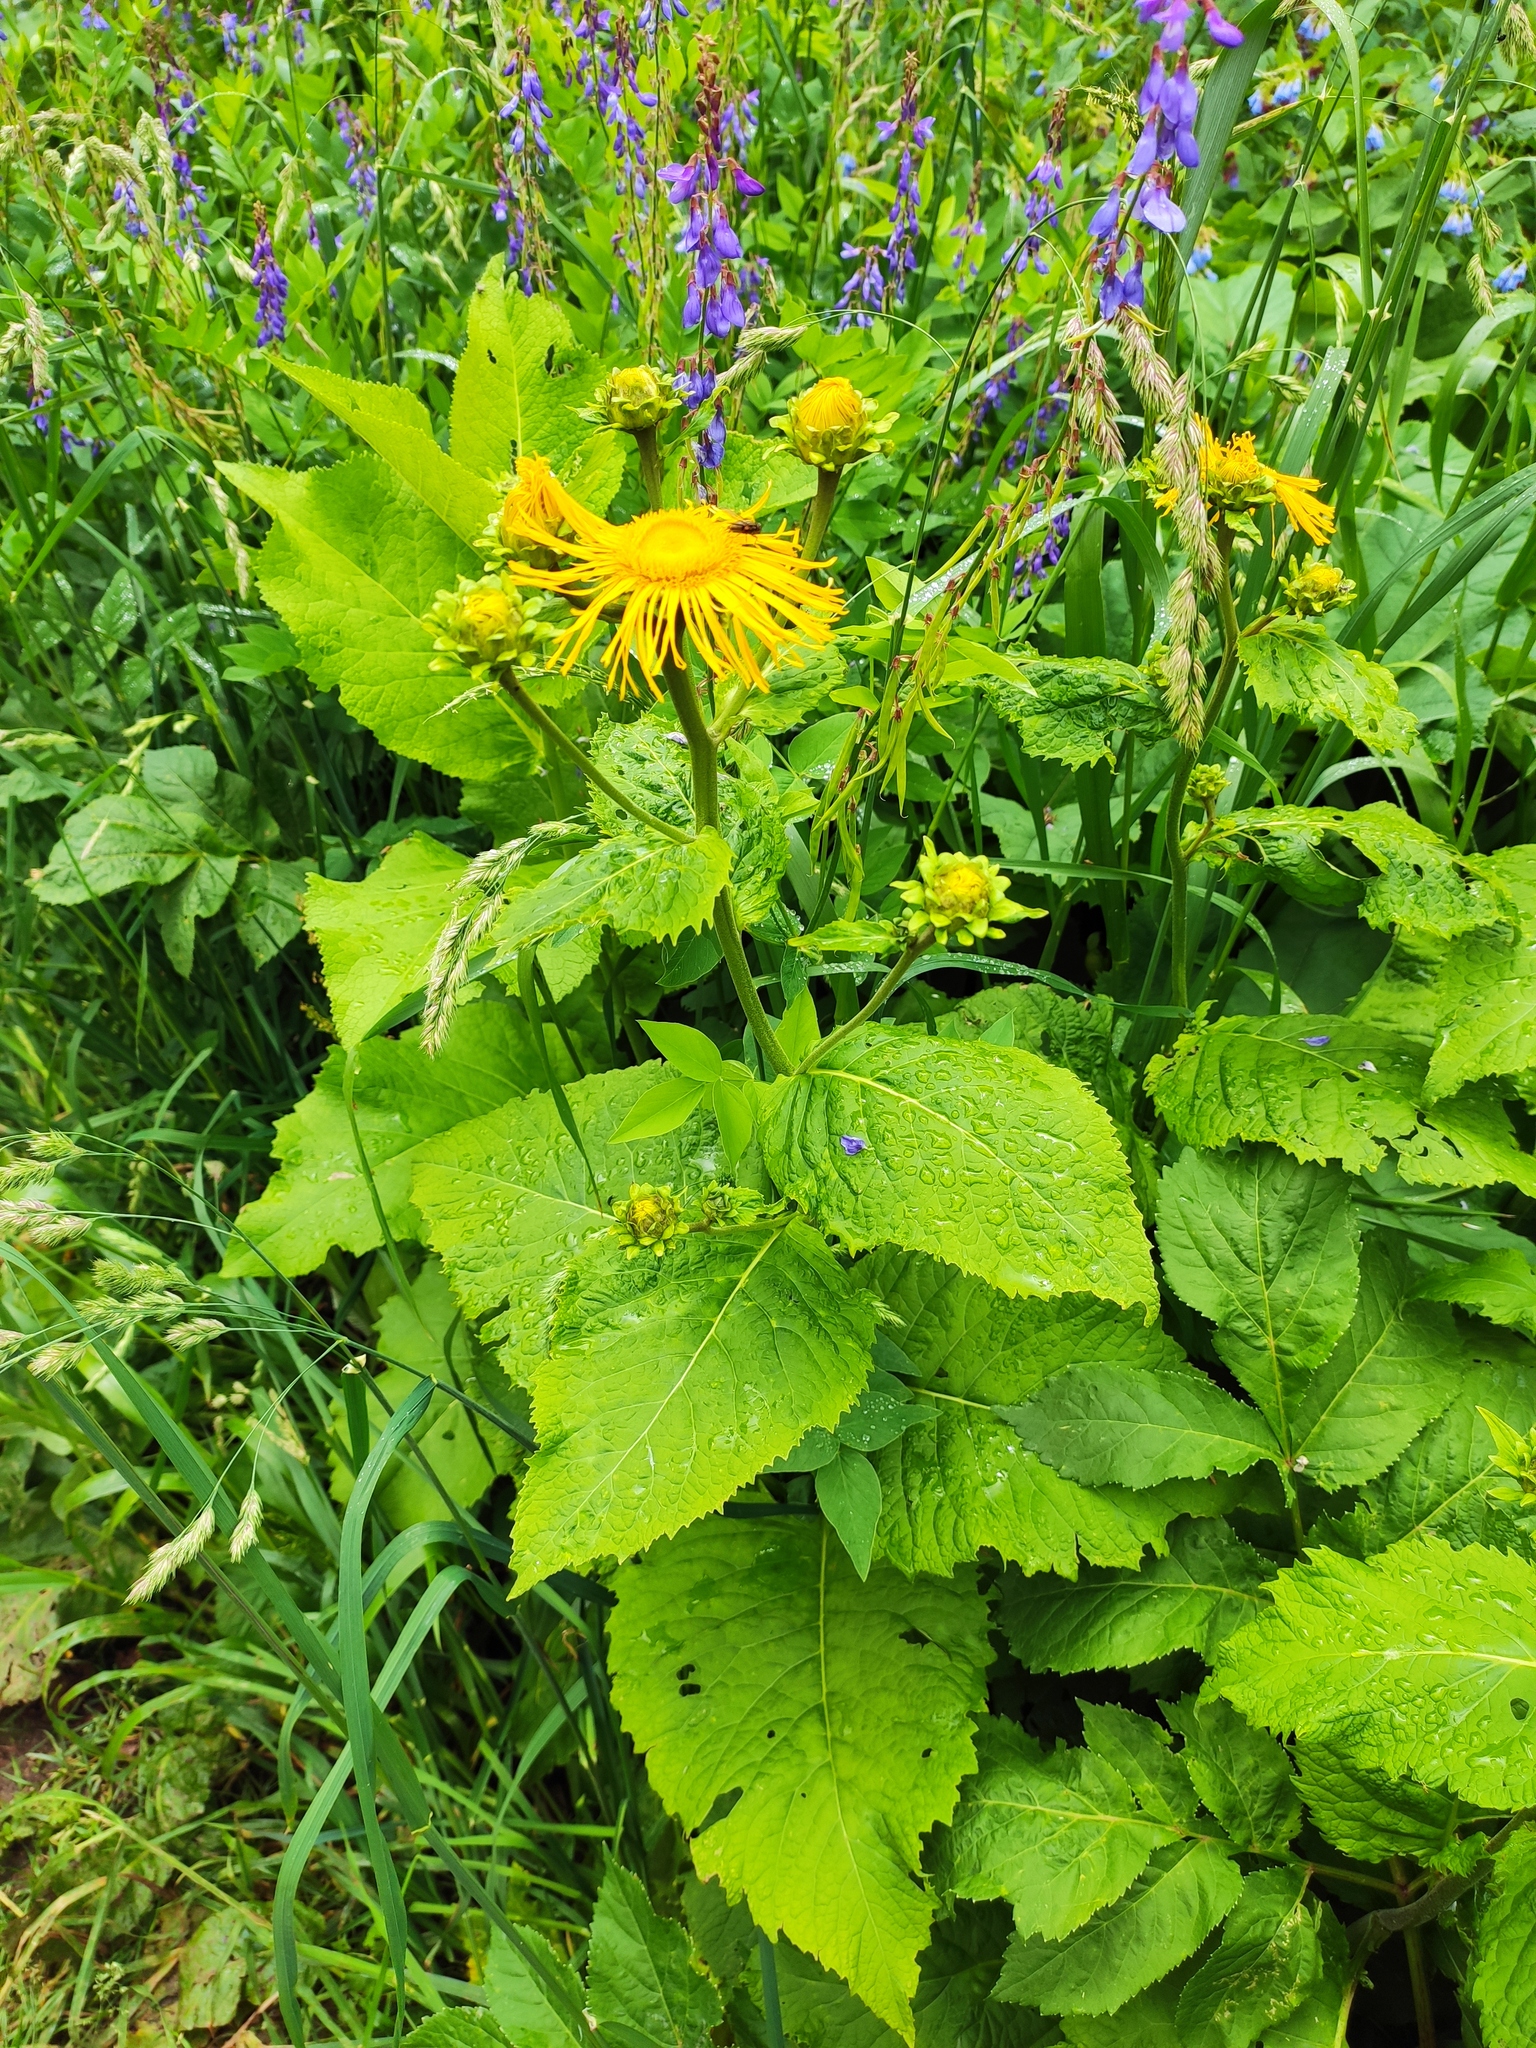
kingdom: Plantae
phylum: Tracheophyta
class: Magnoliopsida
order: Asterales
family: Asteraceae
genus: Inula
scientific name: Inula helenium
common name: Elecampane
